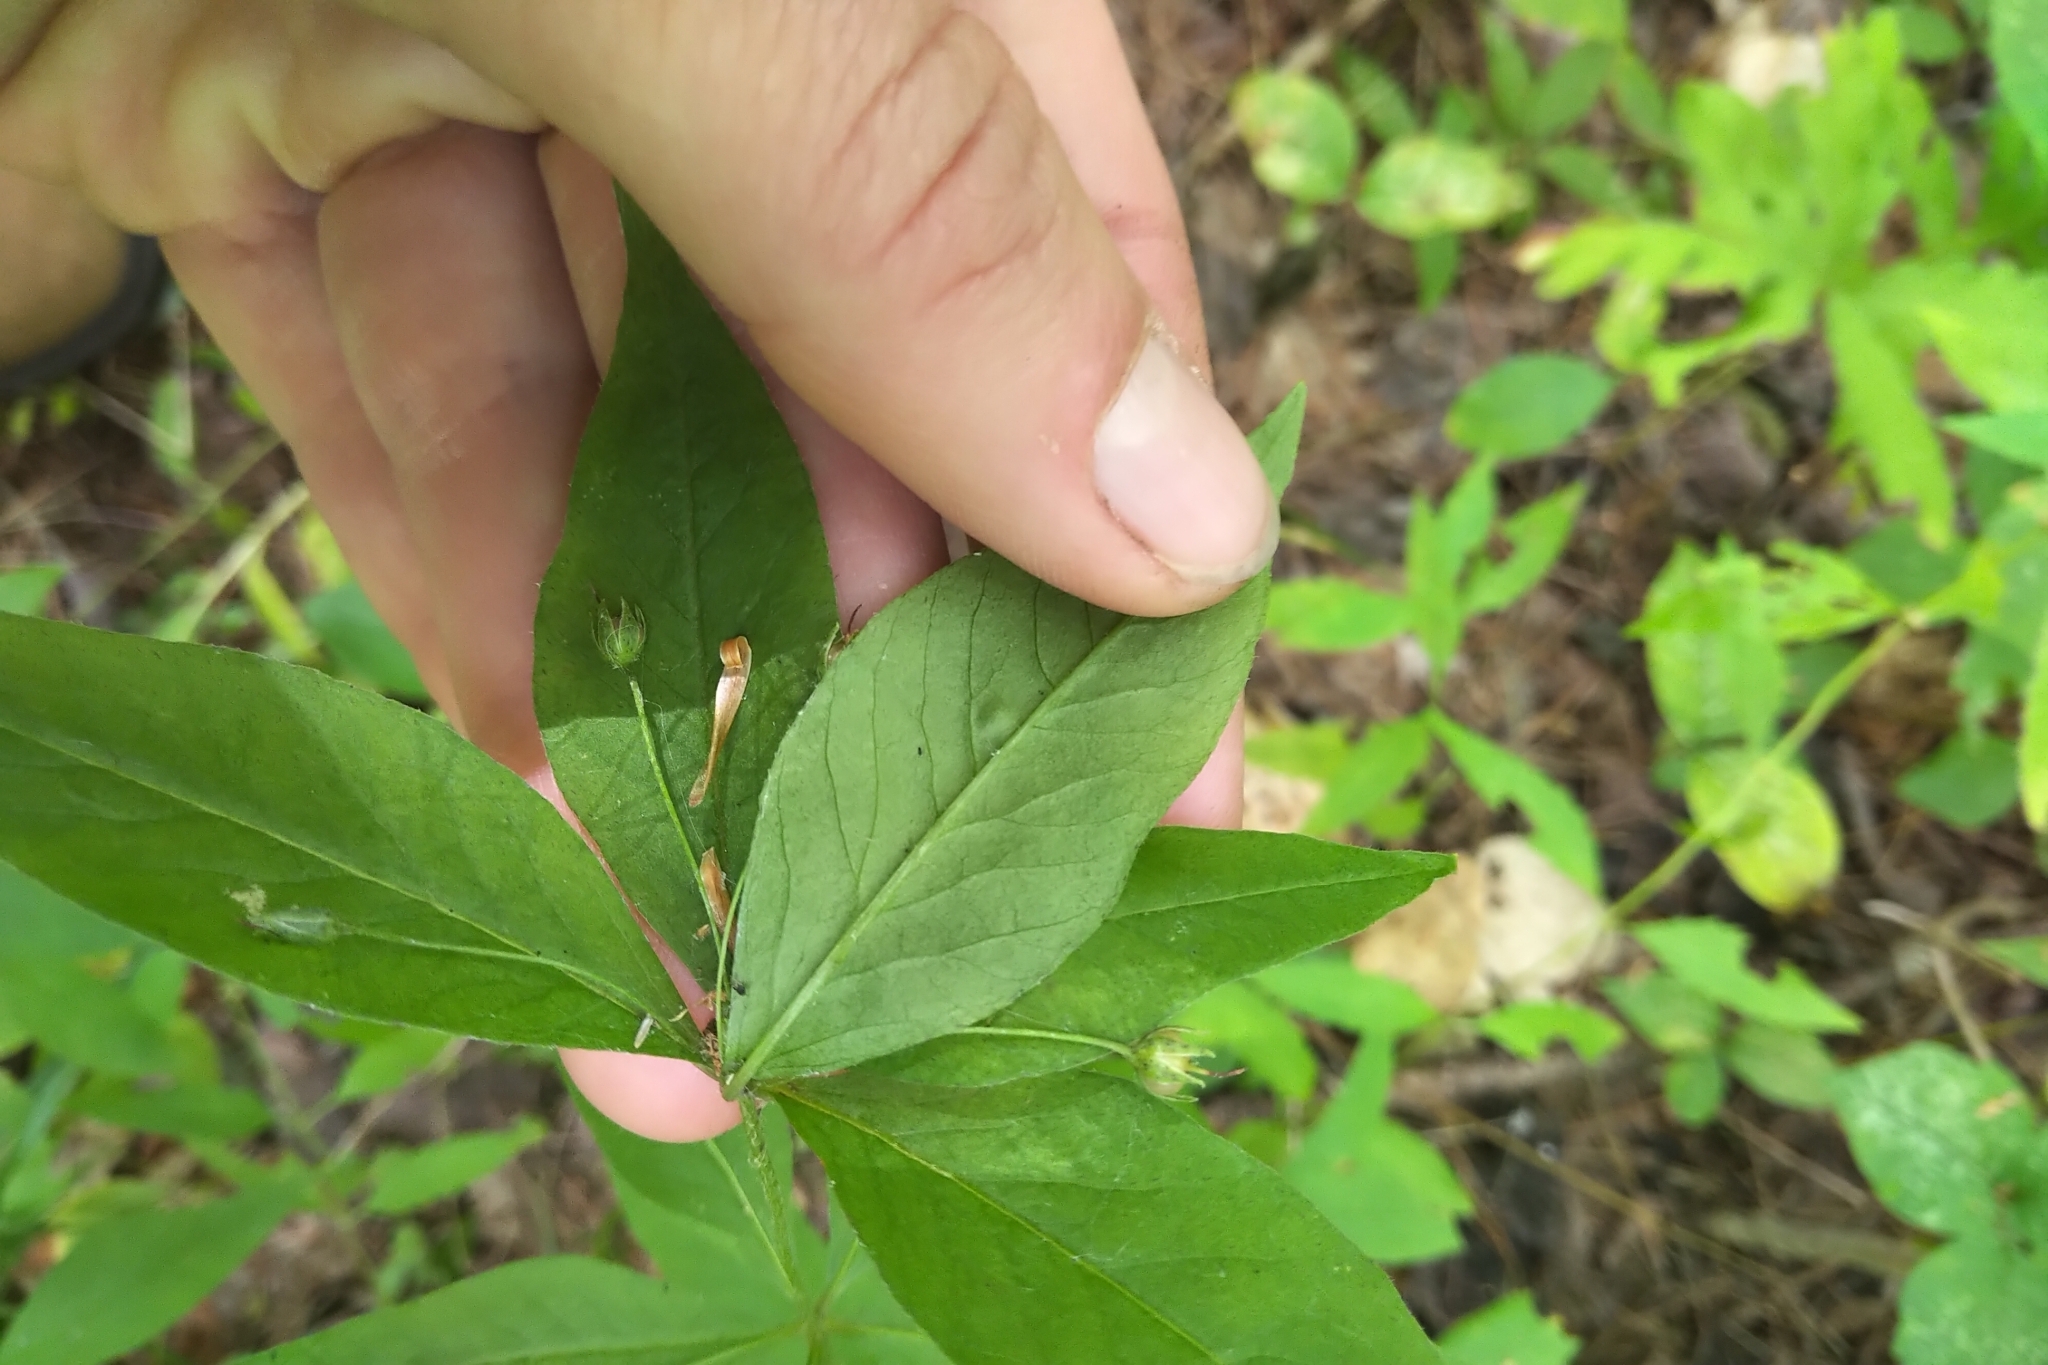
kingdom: Plantae
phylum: Tracheophyta
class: Magnoliopsida
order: Ericales
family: Primulaceae
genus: Lysimachia
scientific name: Lysimachia quadrifolia
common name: Whorled loosestrife
